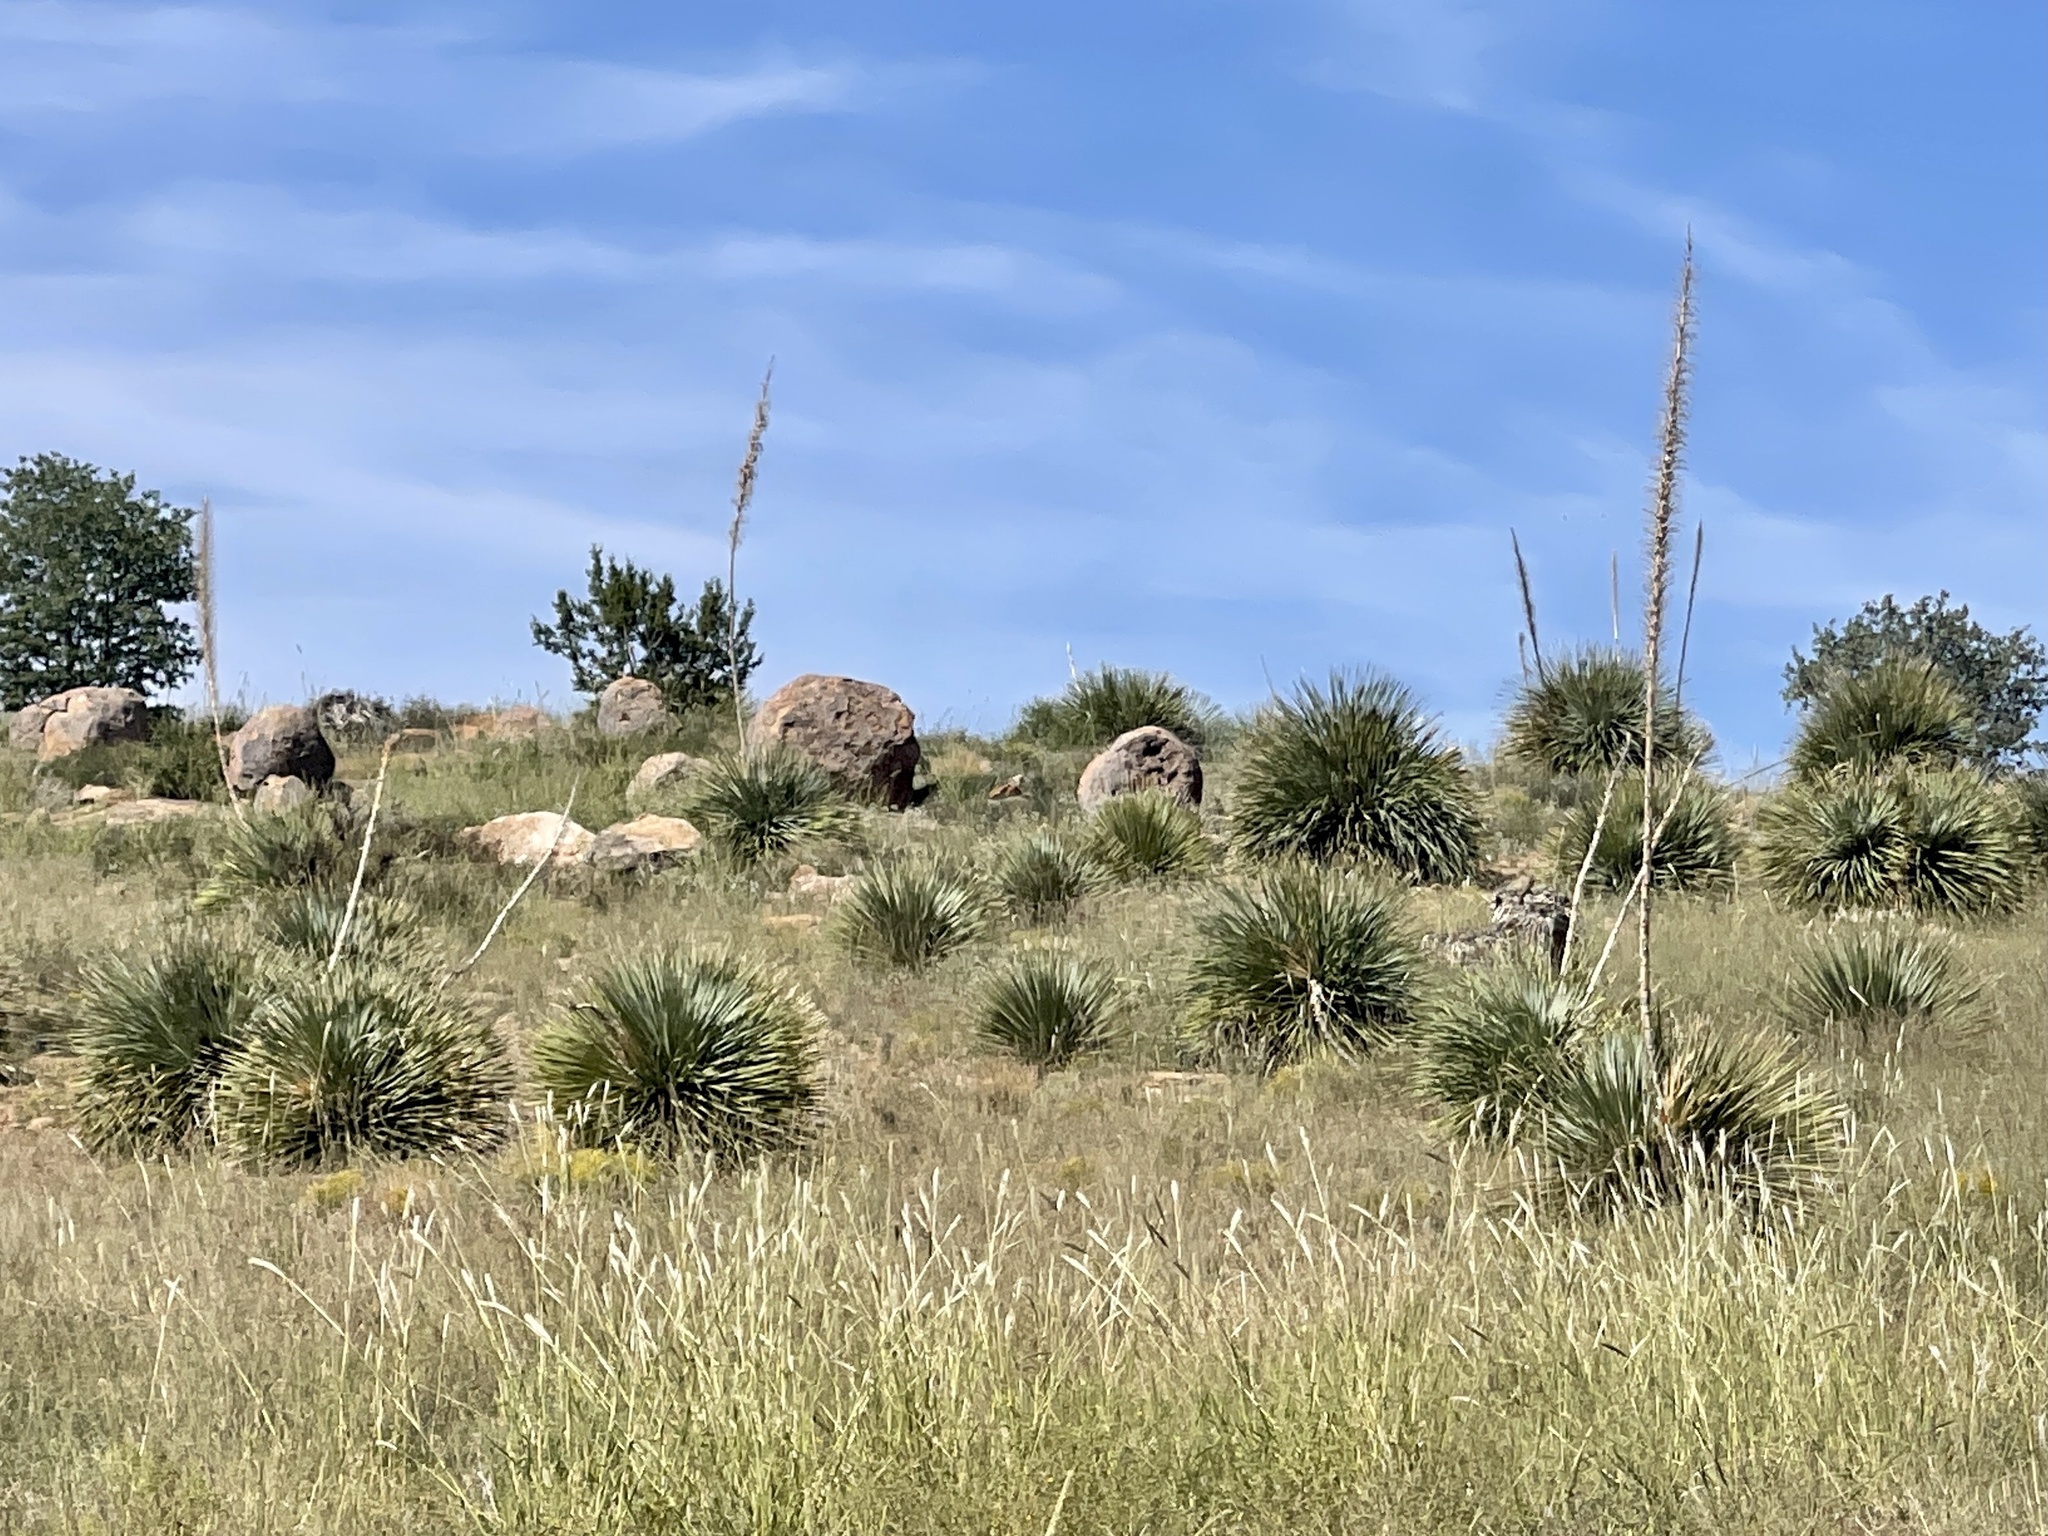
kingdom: Plantae
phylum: Tracheophyta
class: Liliopsida
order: Asparagales
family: Asparagaceae
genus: Dasylirion
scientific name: Dasylirion wheeleri
